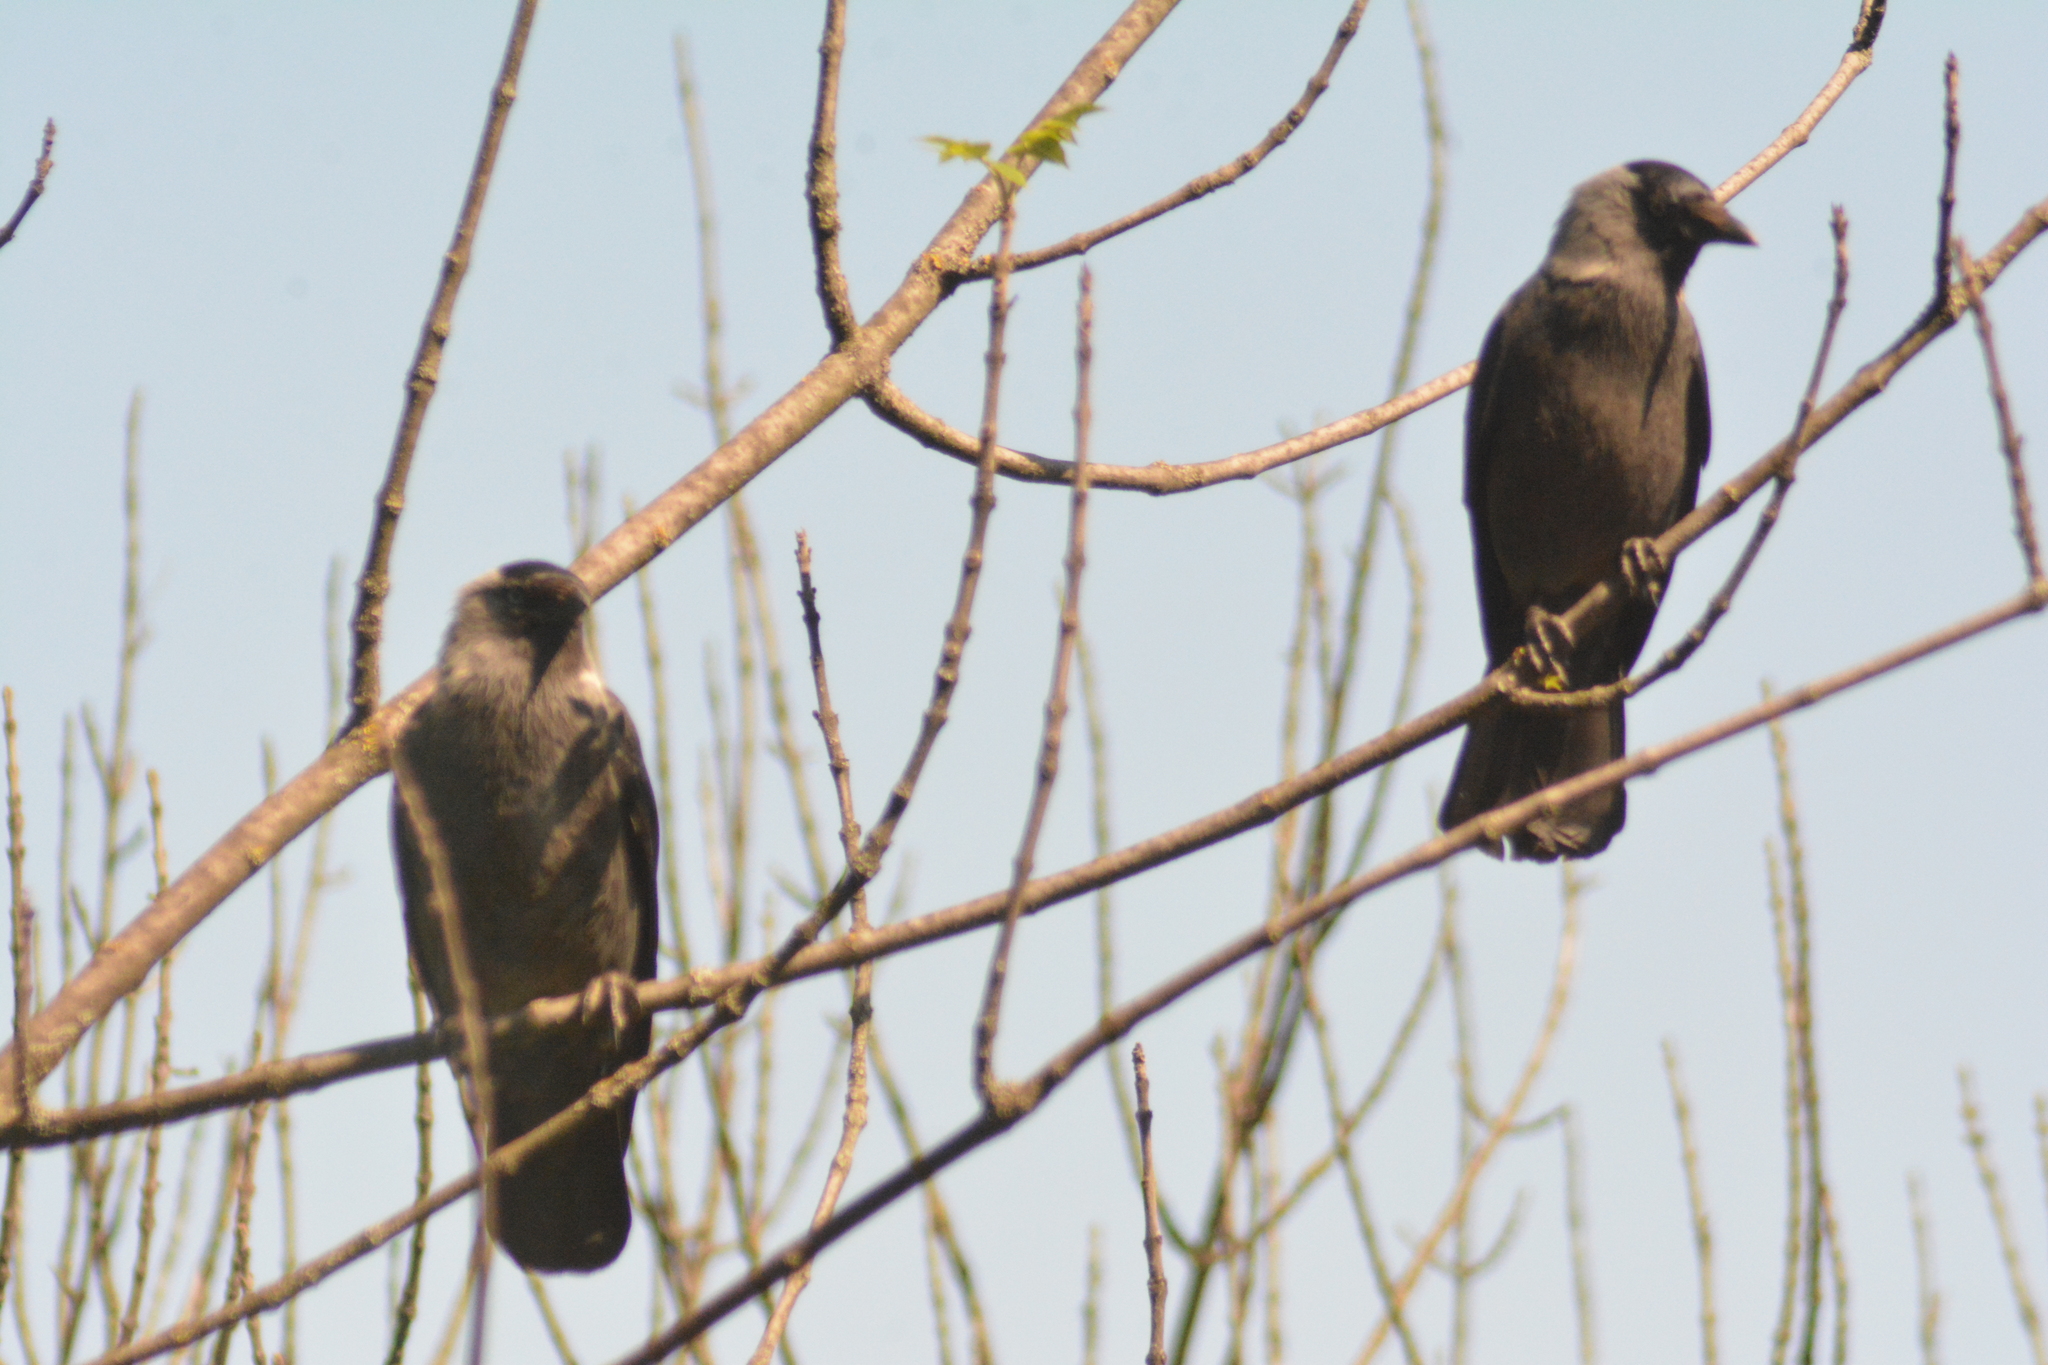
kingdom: Animalia
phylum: Chordata
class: Aves
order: Passeriformes
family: Corvidae
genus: Coloeus
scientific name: Coloeus monedula
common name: Western jackdaw
